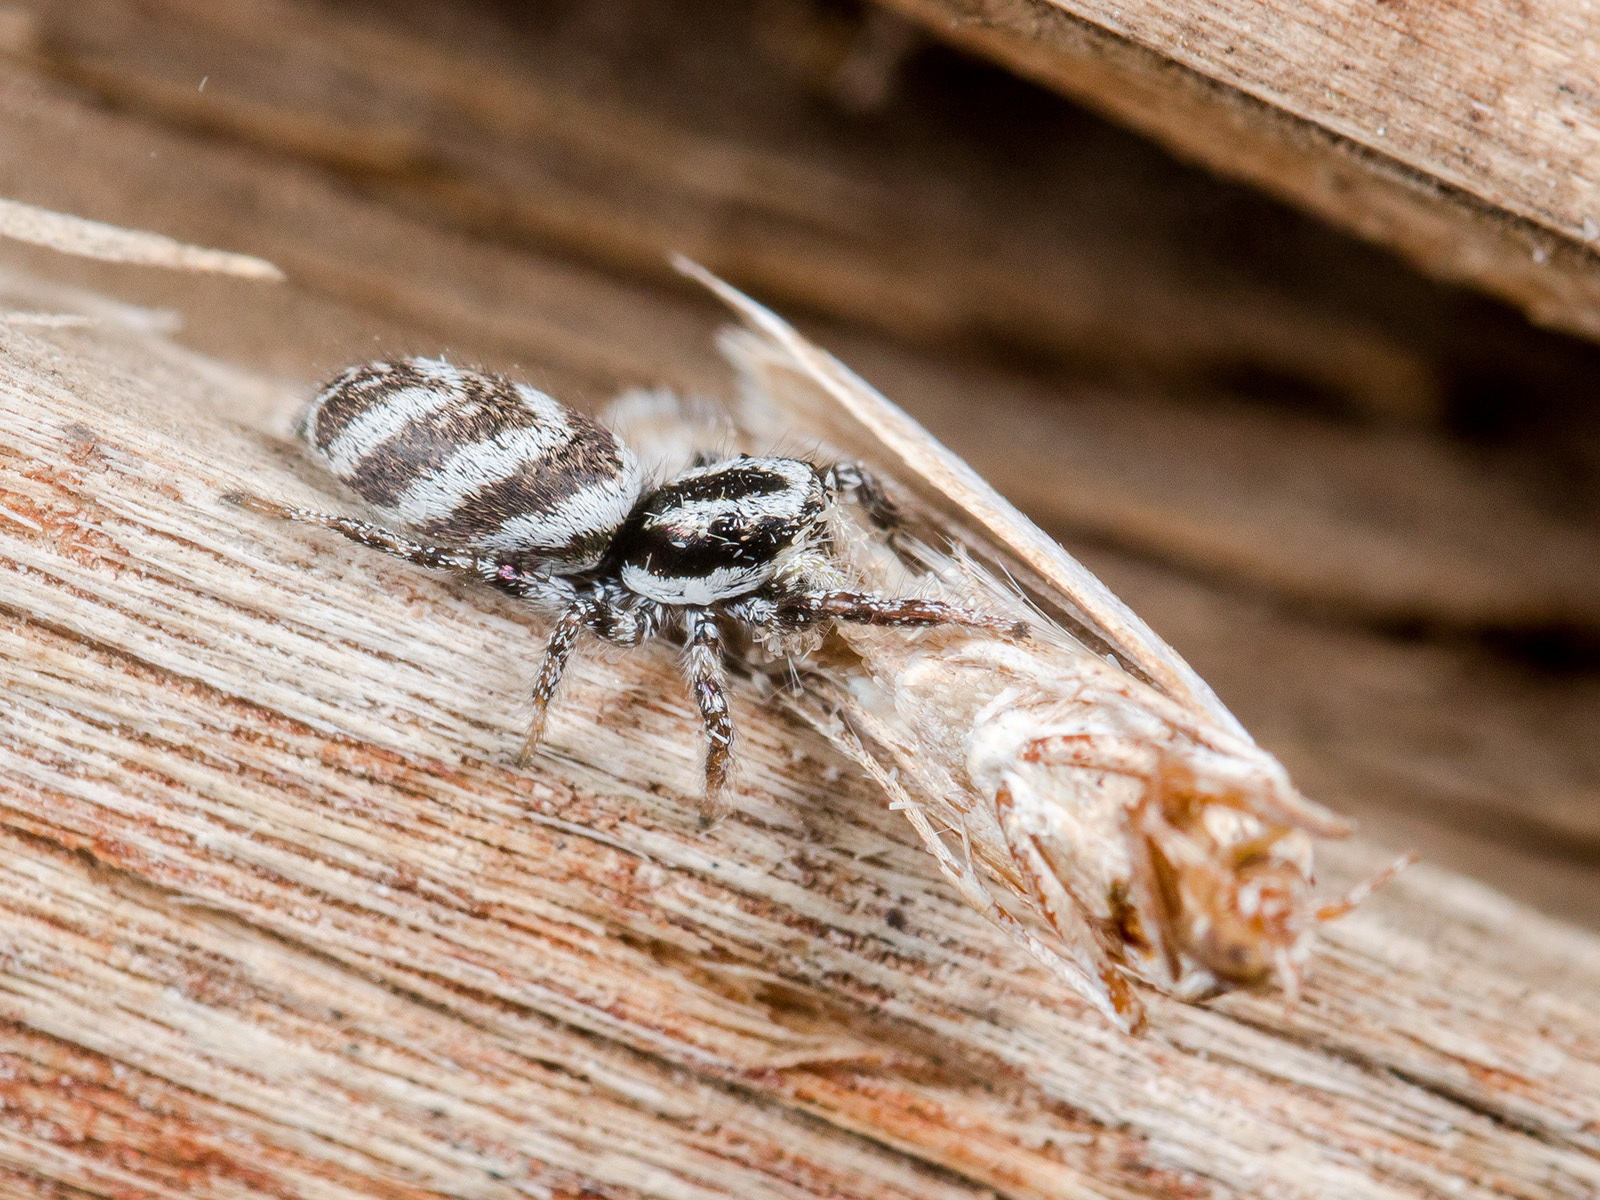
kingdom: Animalia
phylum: Arthropoda
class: Arachnida
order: Araneae
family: Salticidae
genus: Salticus
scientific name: Salticus tricinctus
